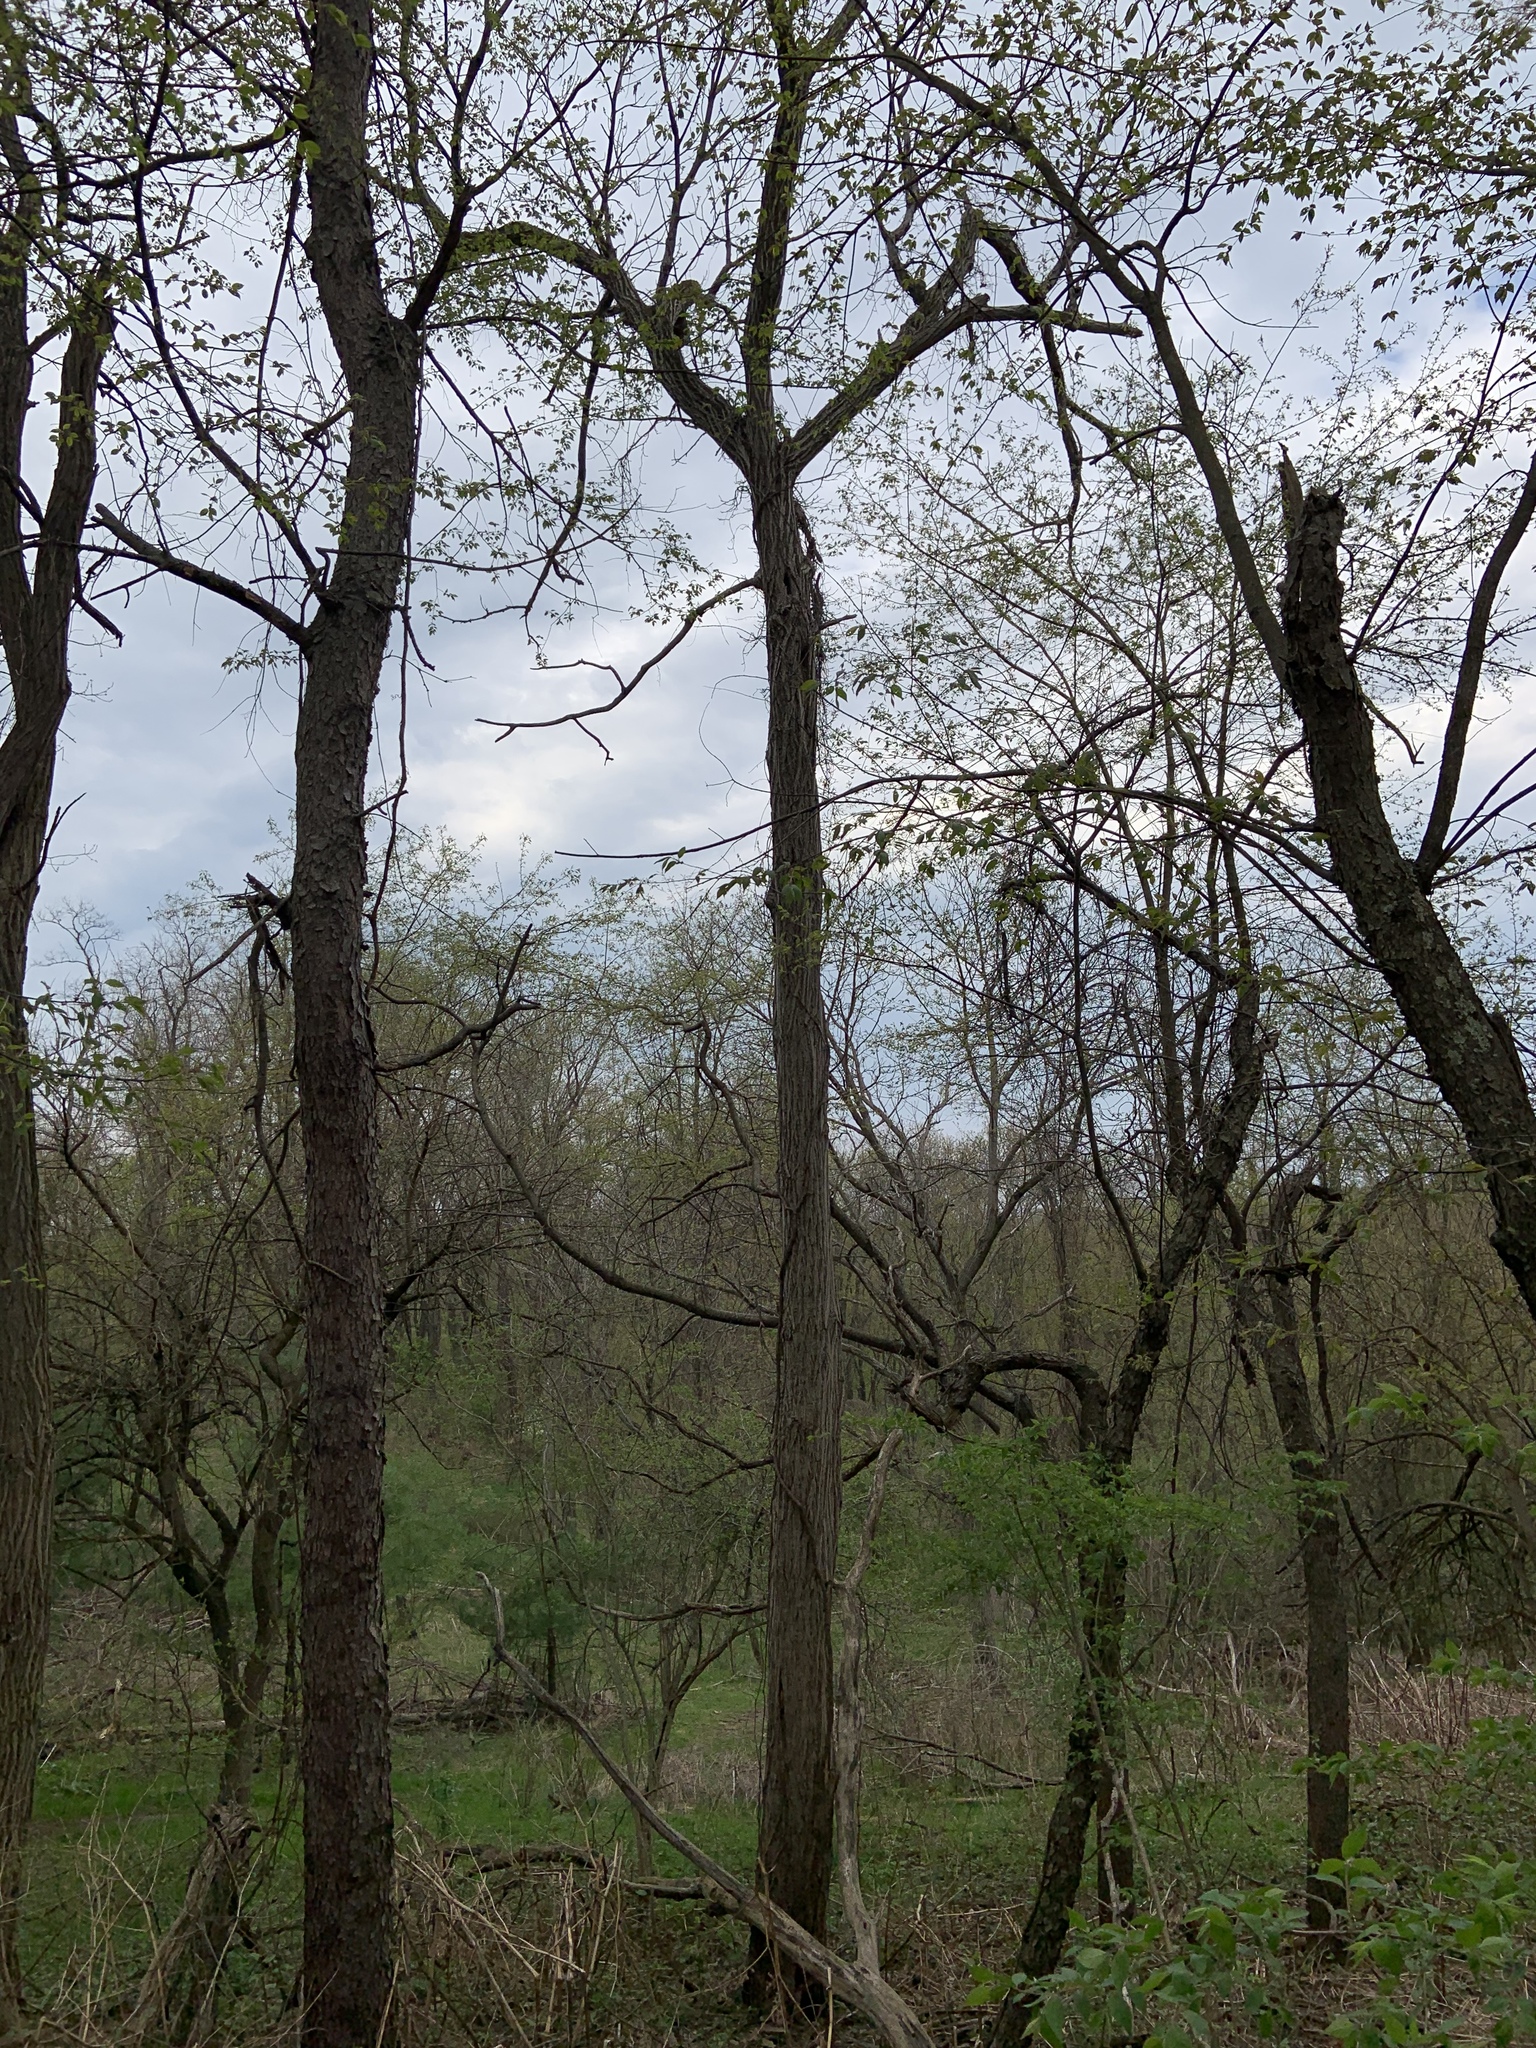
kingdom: Plantae
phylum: Tracheophyta
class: Magnoliopsida
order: Fagales
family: Juglandaceae
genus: Juglans
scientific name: Juglans cinerea
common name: Butternut
